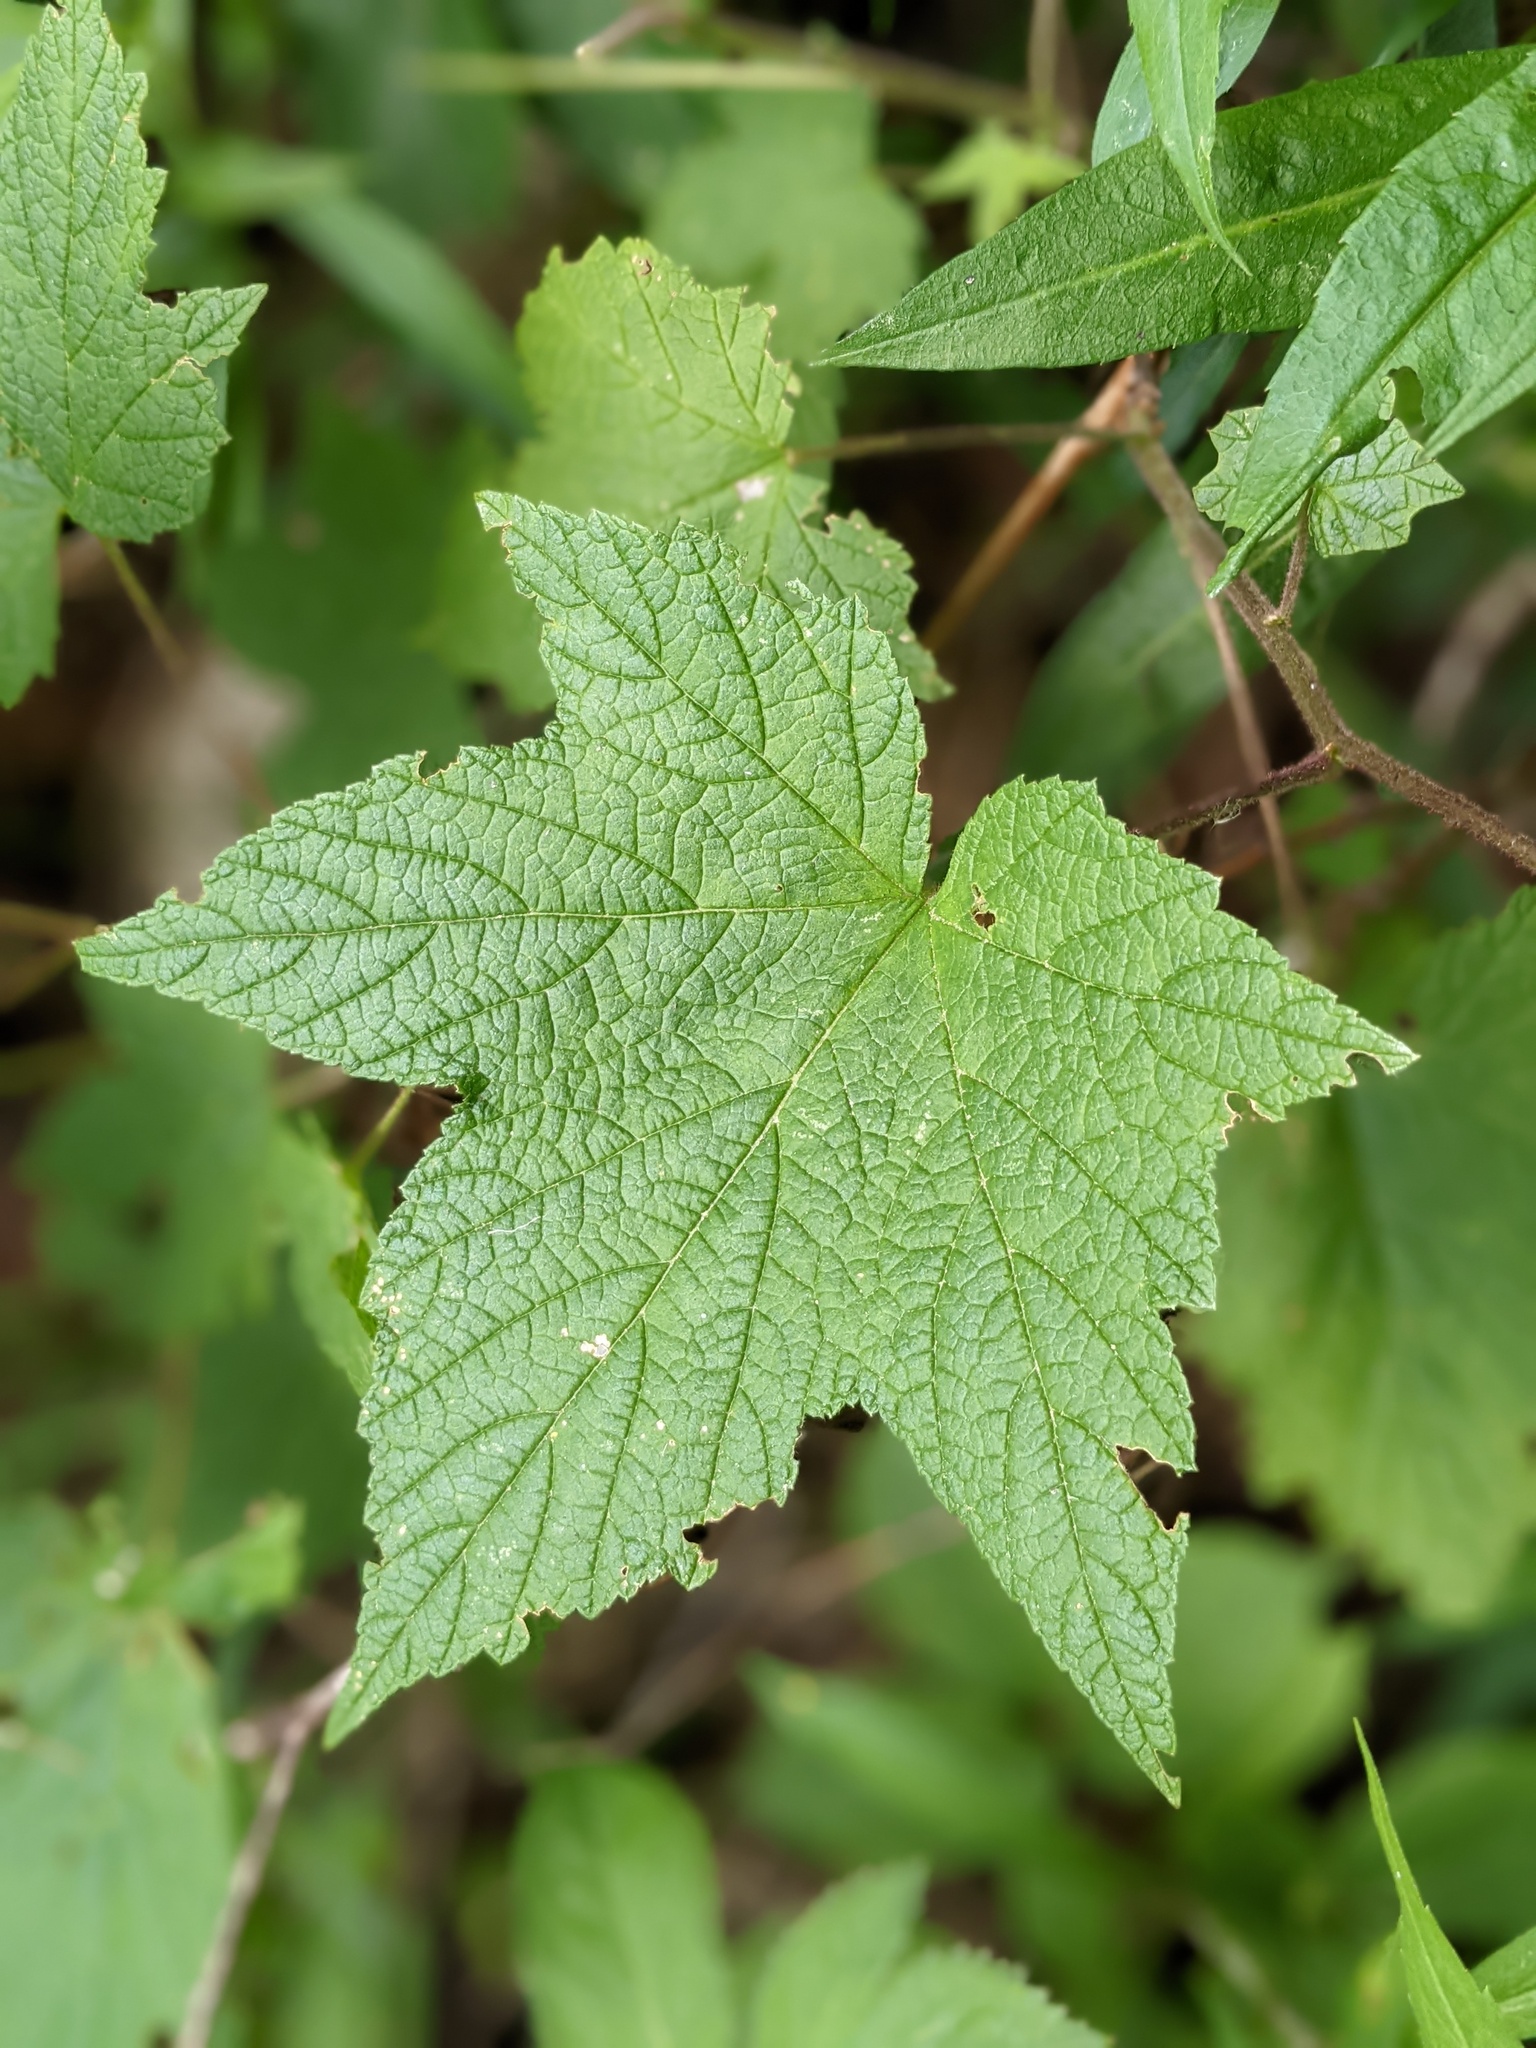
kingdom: Plantae
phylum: Tracheophyta
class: Magnoliopsida
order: Rosales
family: Rosaceae
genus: Rubus
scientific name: Rubus odoratus
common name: Purple-flowered raspberry
